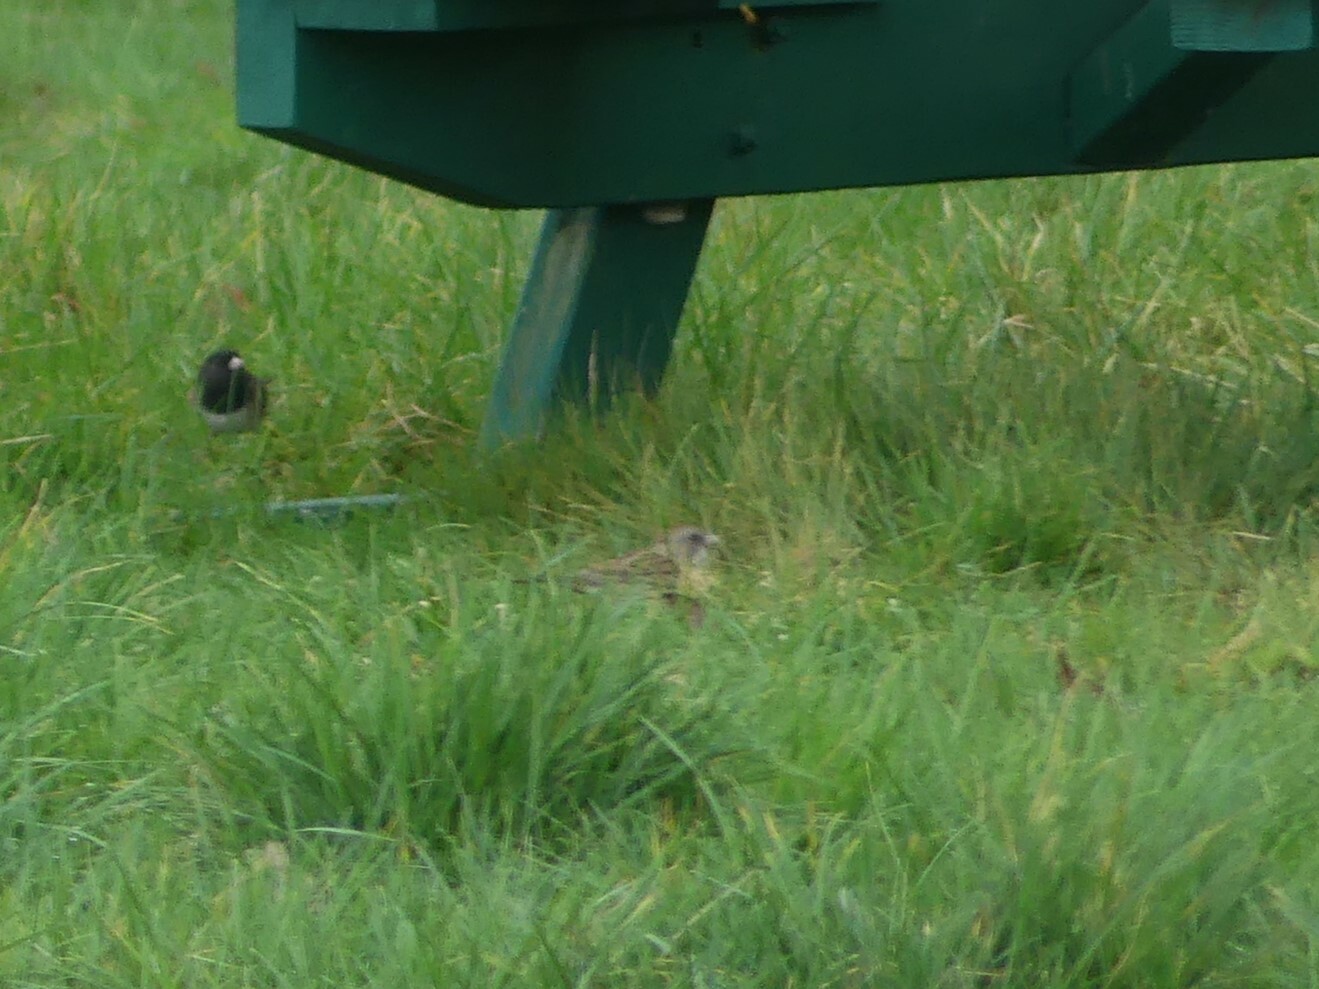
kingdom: Animalia
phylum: Chordata
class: Aves
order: Passeriformes
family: Passerellidae
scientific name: Passerellidae
